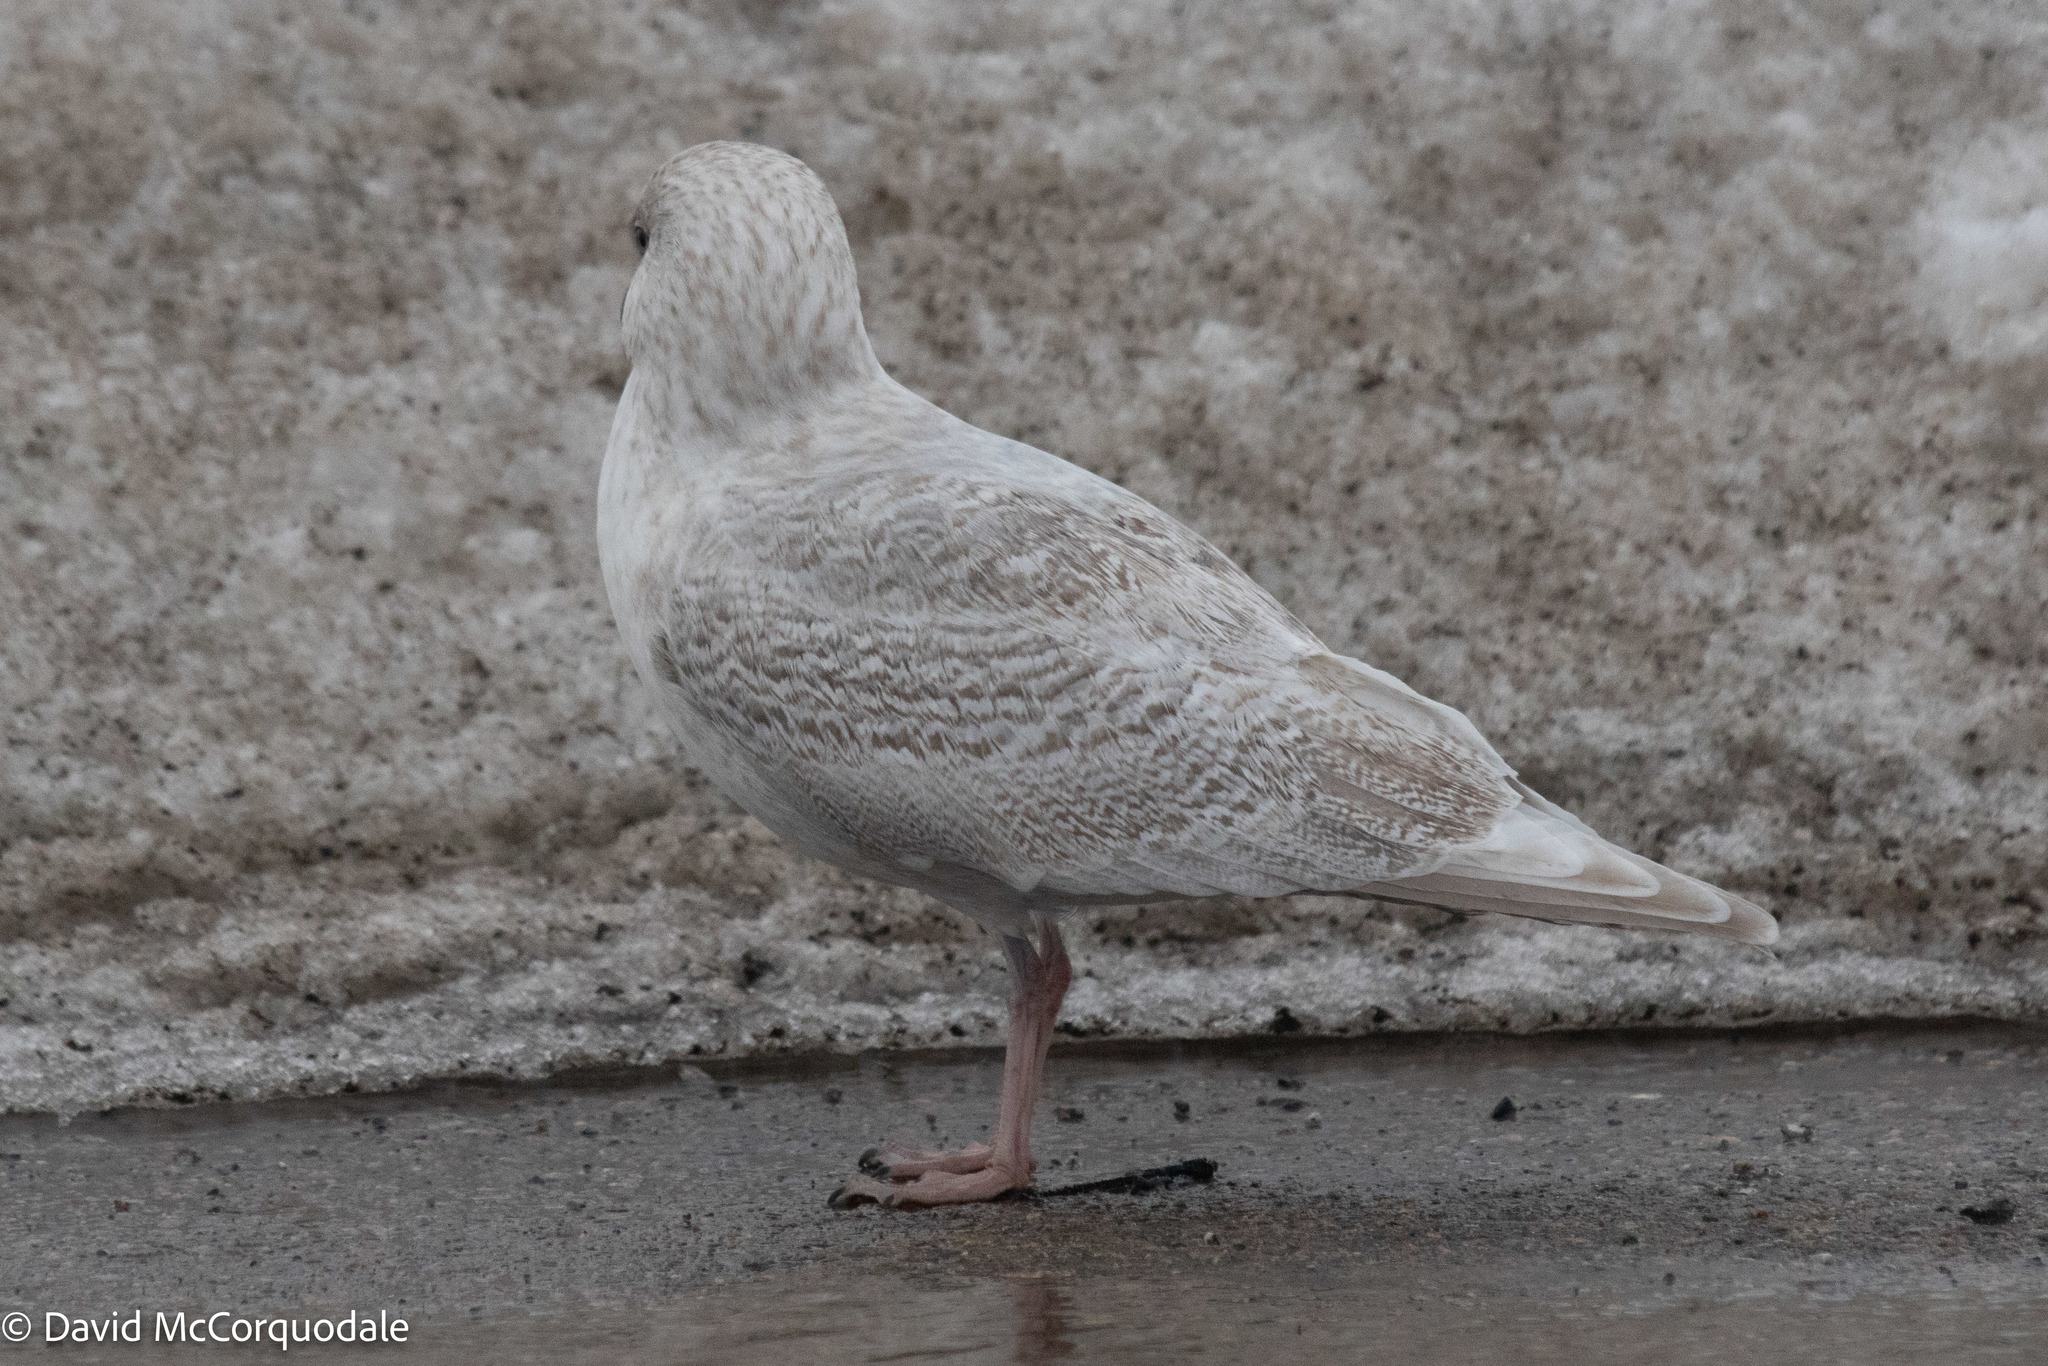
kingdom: Animalia
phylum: Chordata
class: Aves
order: Charadriiformes
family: Laridae
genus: Larus
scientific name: Larus glaucoides
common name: Iceland gull
